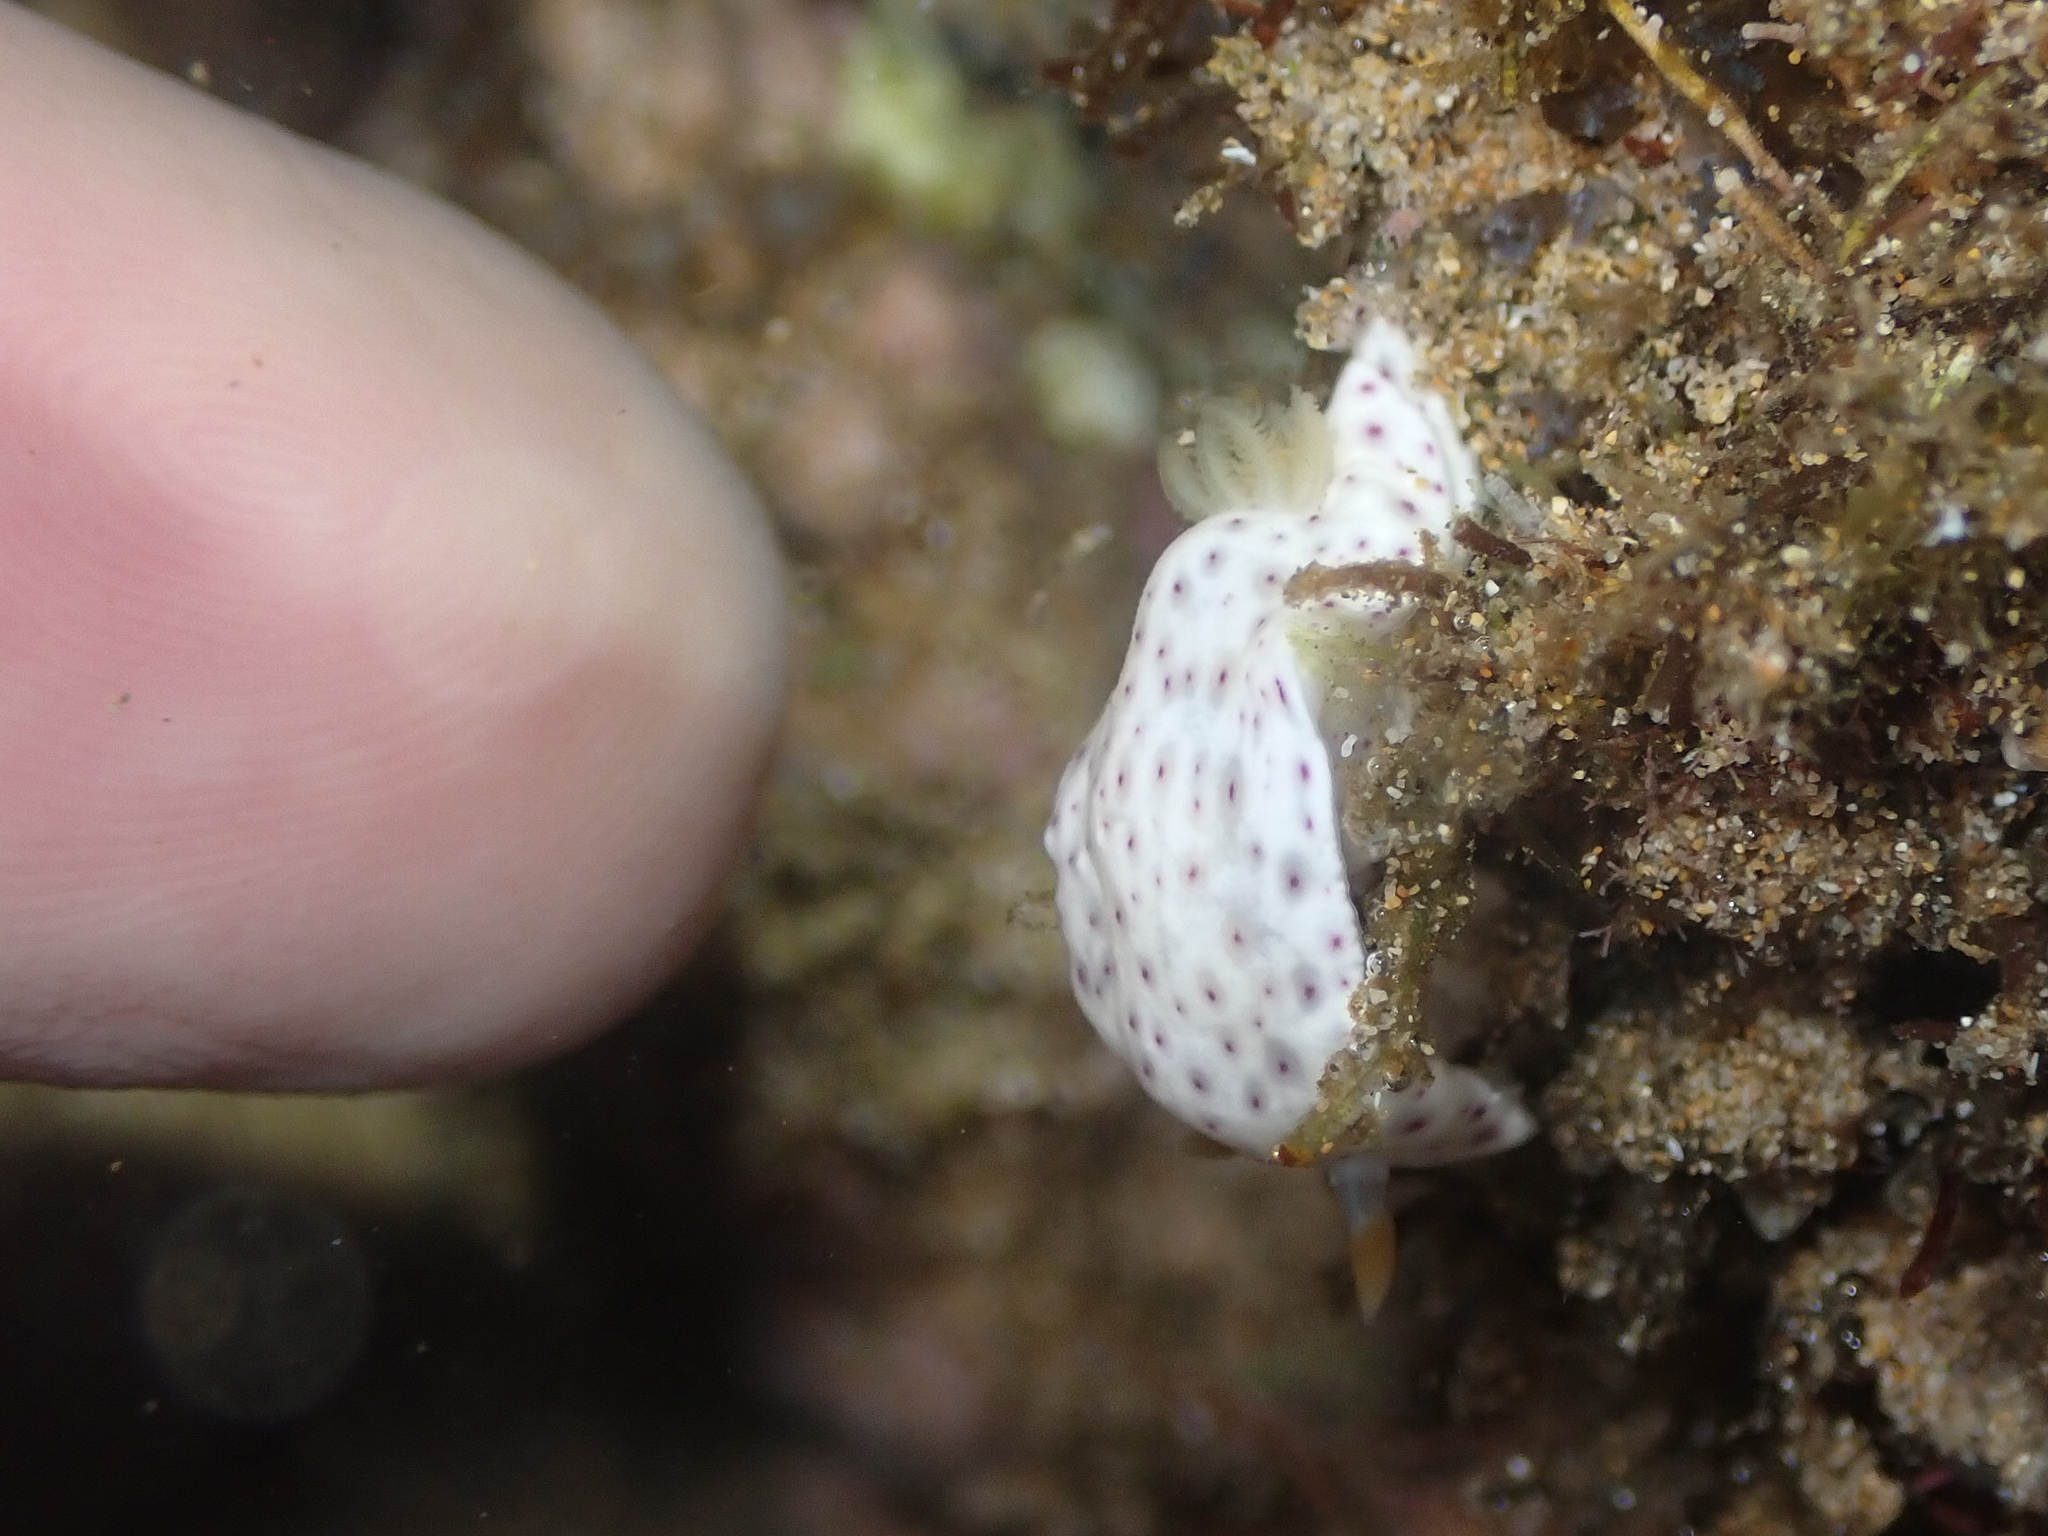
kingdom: Animalia
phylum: Mollusca
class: Gastropoda
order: Nudibranchia
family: Chromodorididae
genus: Chromodoris
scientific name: Chromodoris aspersa
